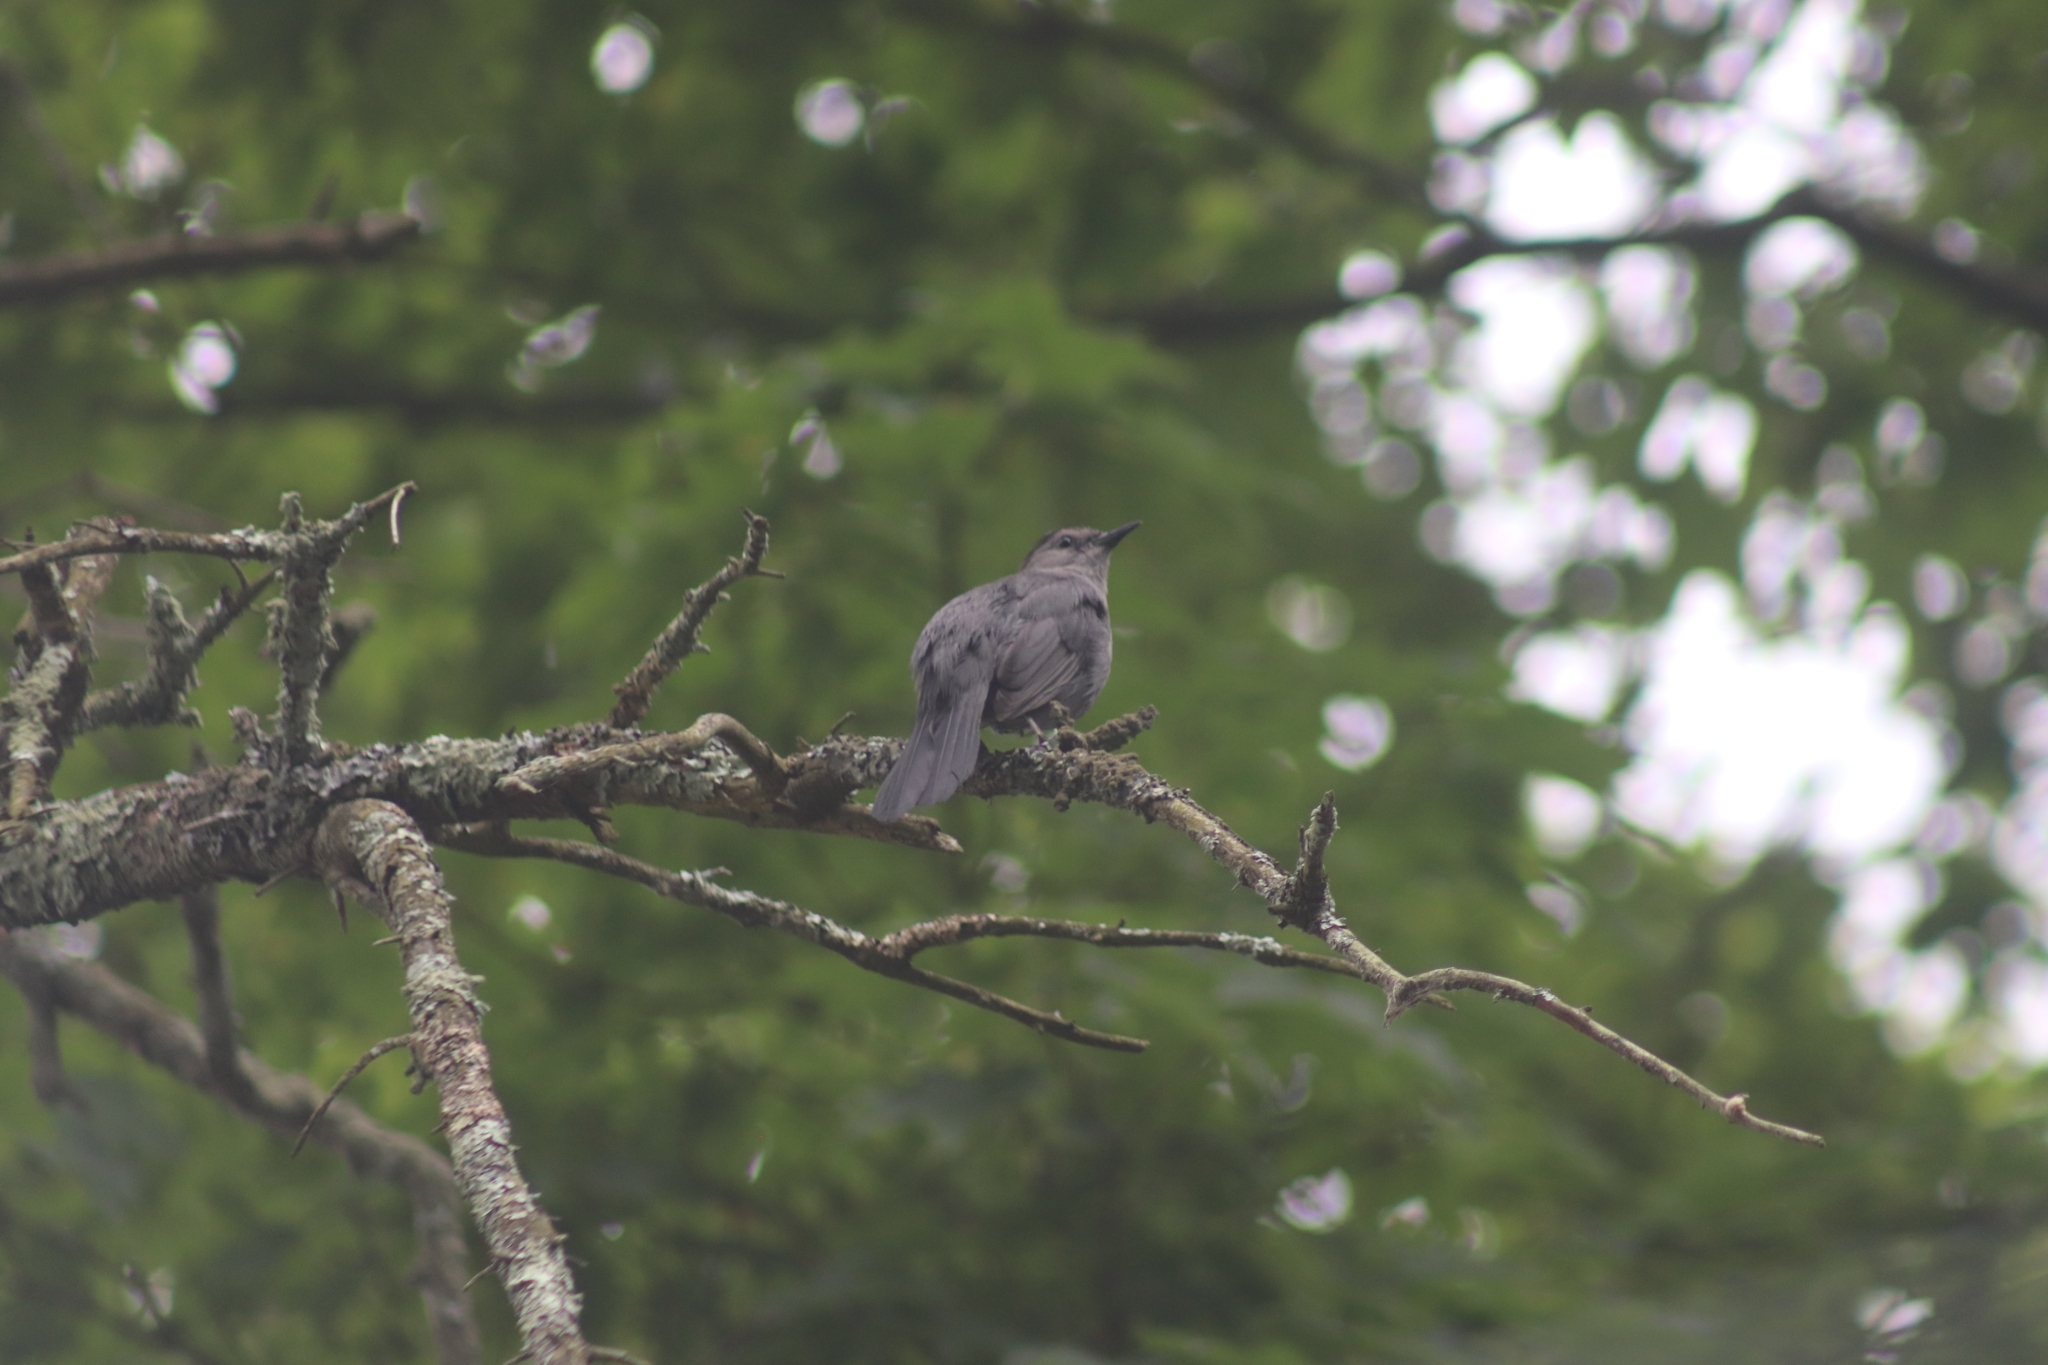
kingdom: Animalia
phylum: Chordata
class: Aves
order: Passeriformes
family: Mimidae
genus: Dumetella
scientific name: Dumetella carolinensis
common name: Gray catbird
